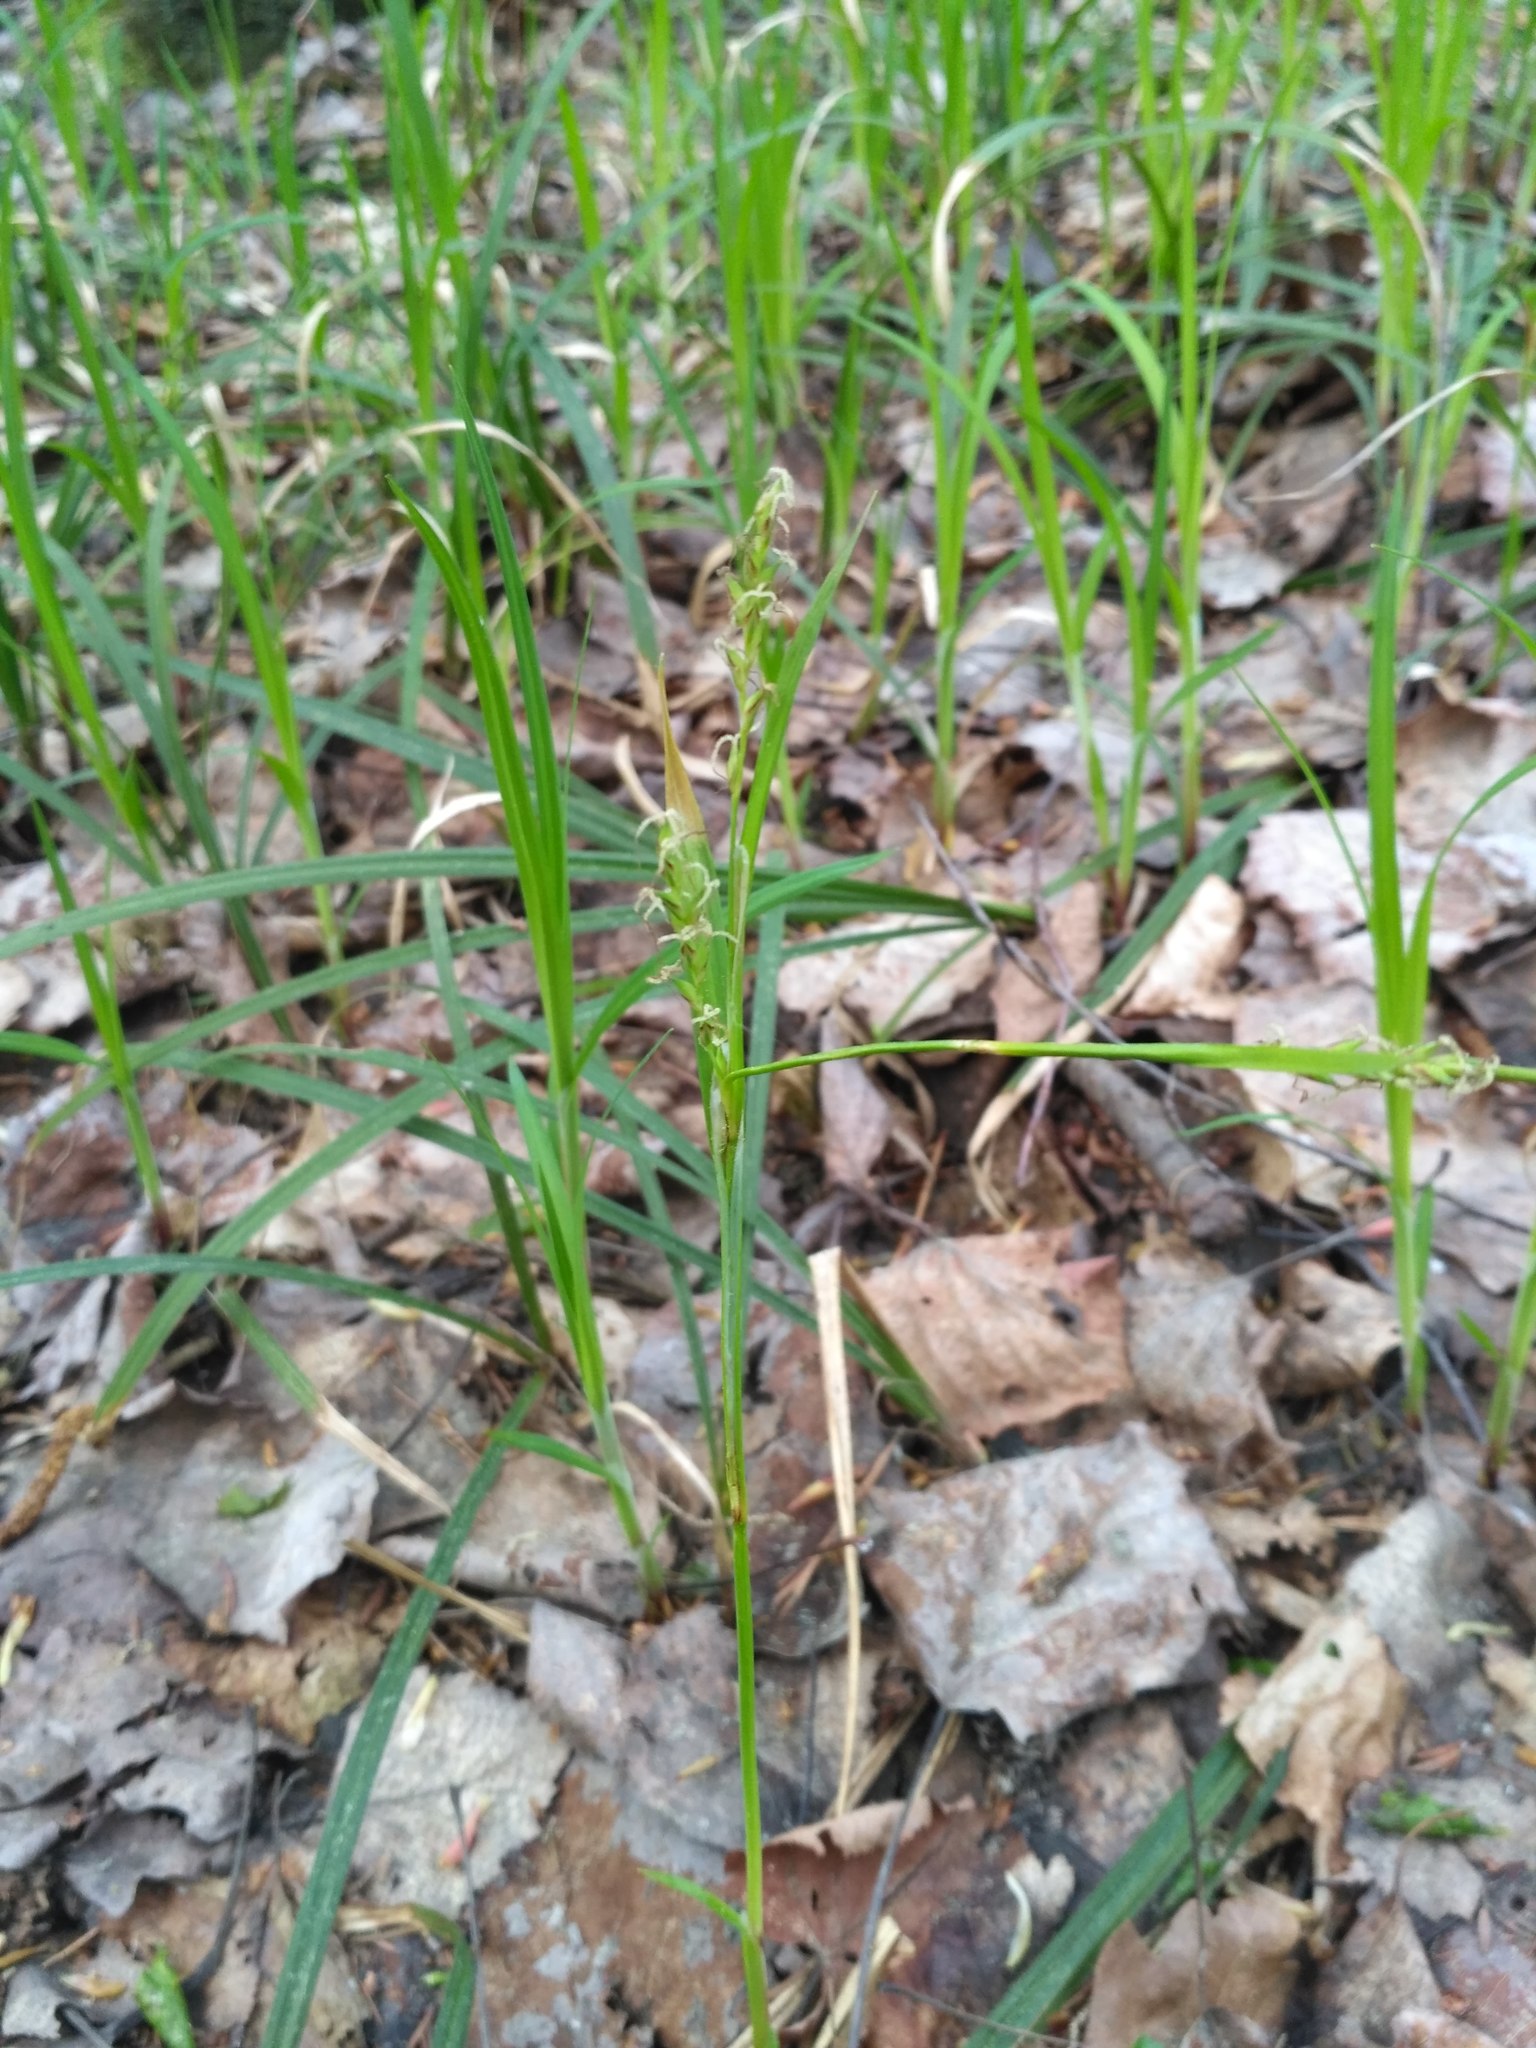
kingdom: Plantae
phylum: Tracheophyta
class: Liliopsida
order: Poales
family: Cyperaceae
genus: Carex
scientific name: Carex pilosa
